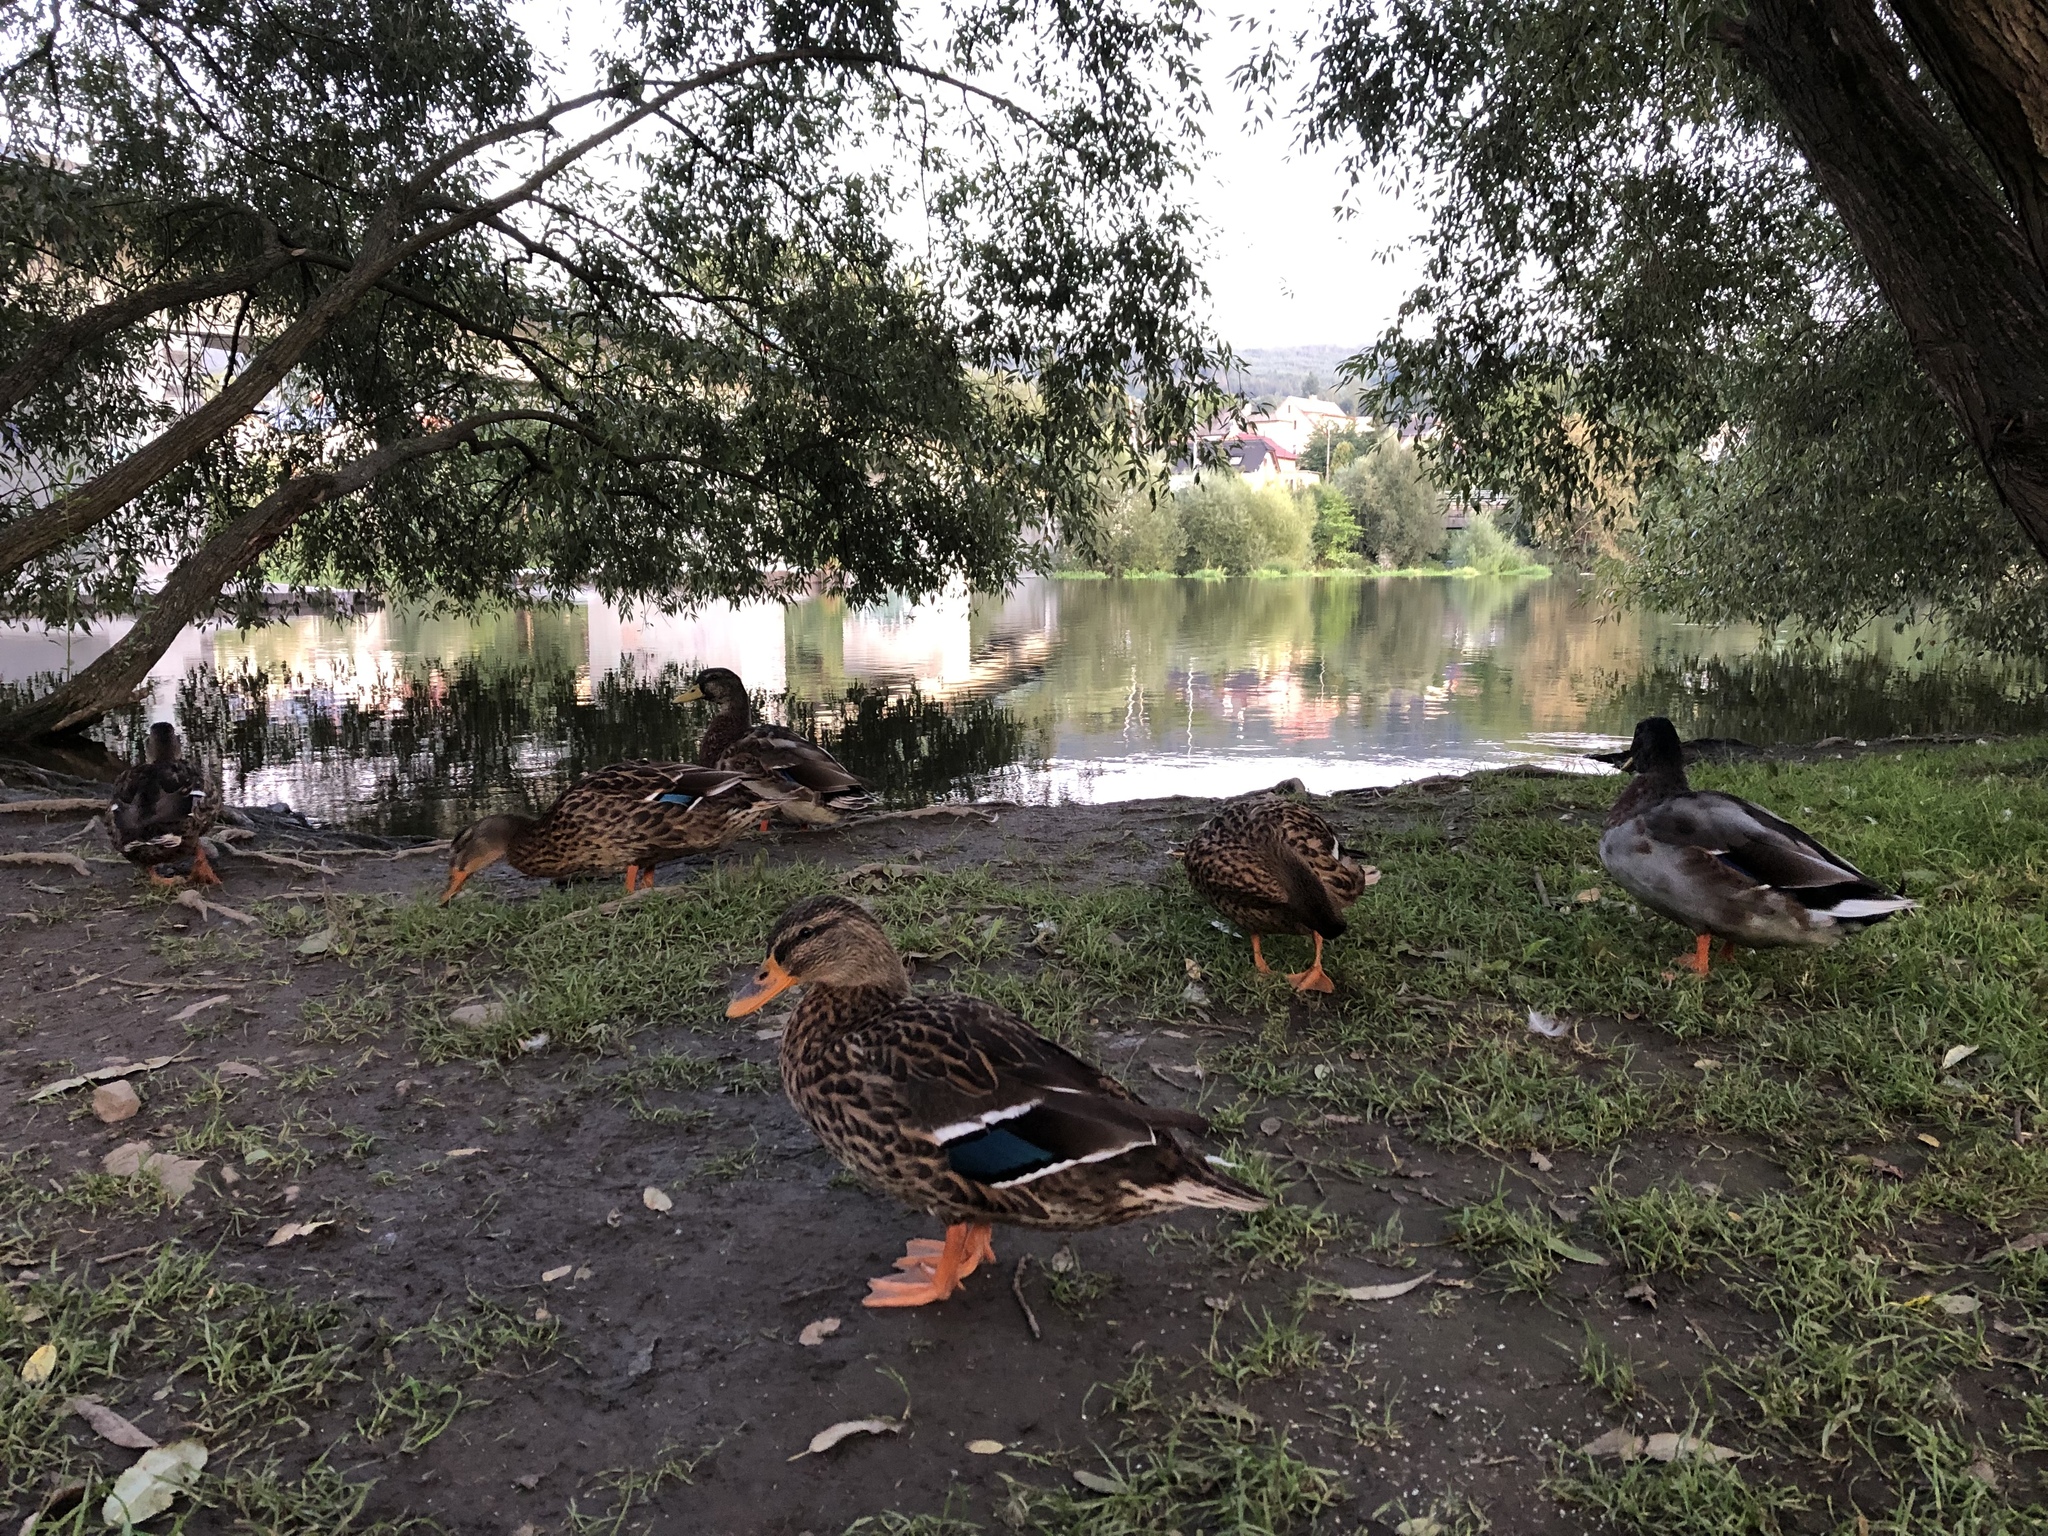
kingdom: Animalia
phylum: Chordata
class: Aves
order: Anseriformes
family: Anatidae
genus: Anas
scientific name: Anas platyrhynchos
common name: Mallard
